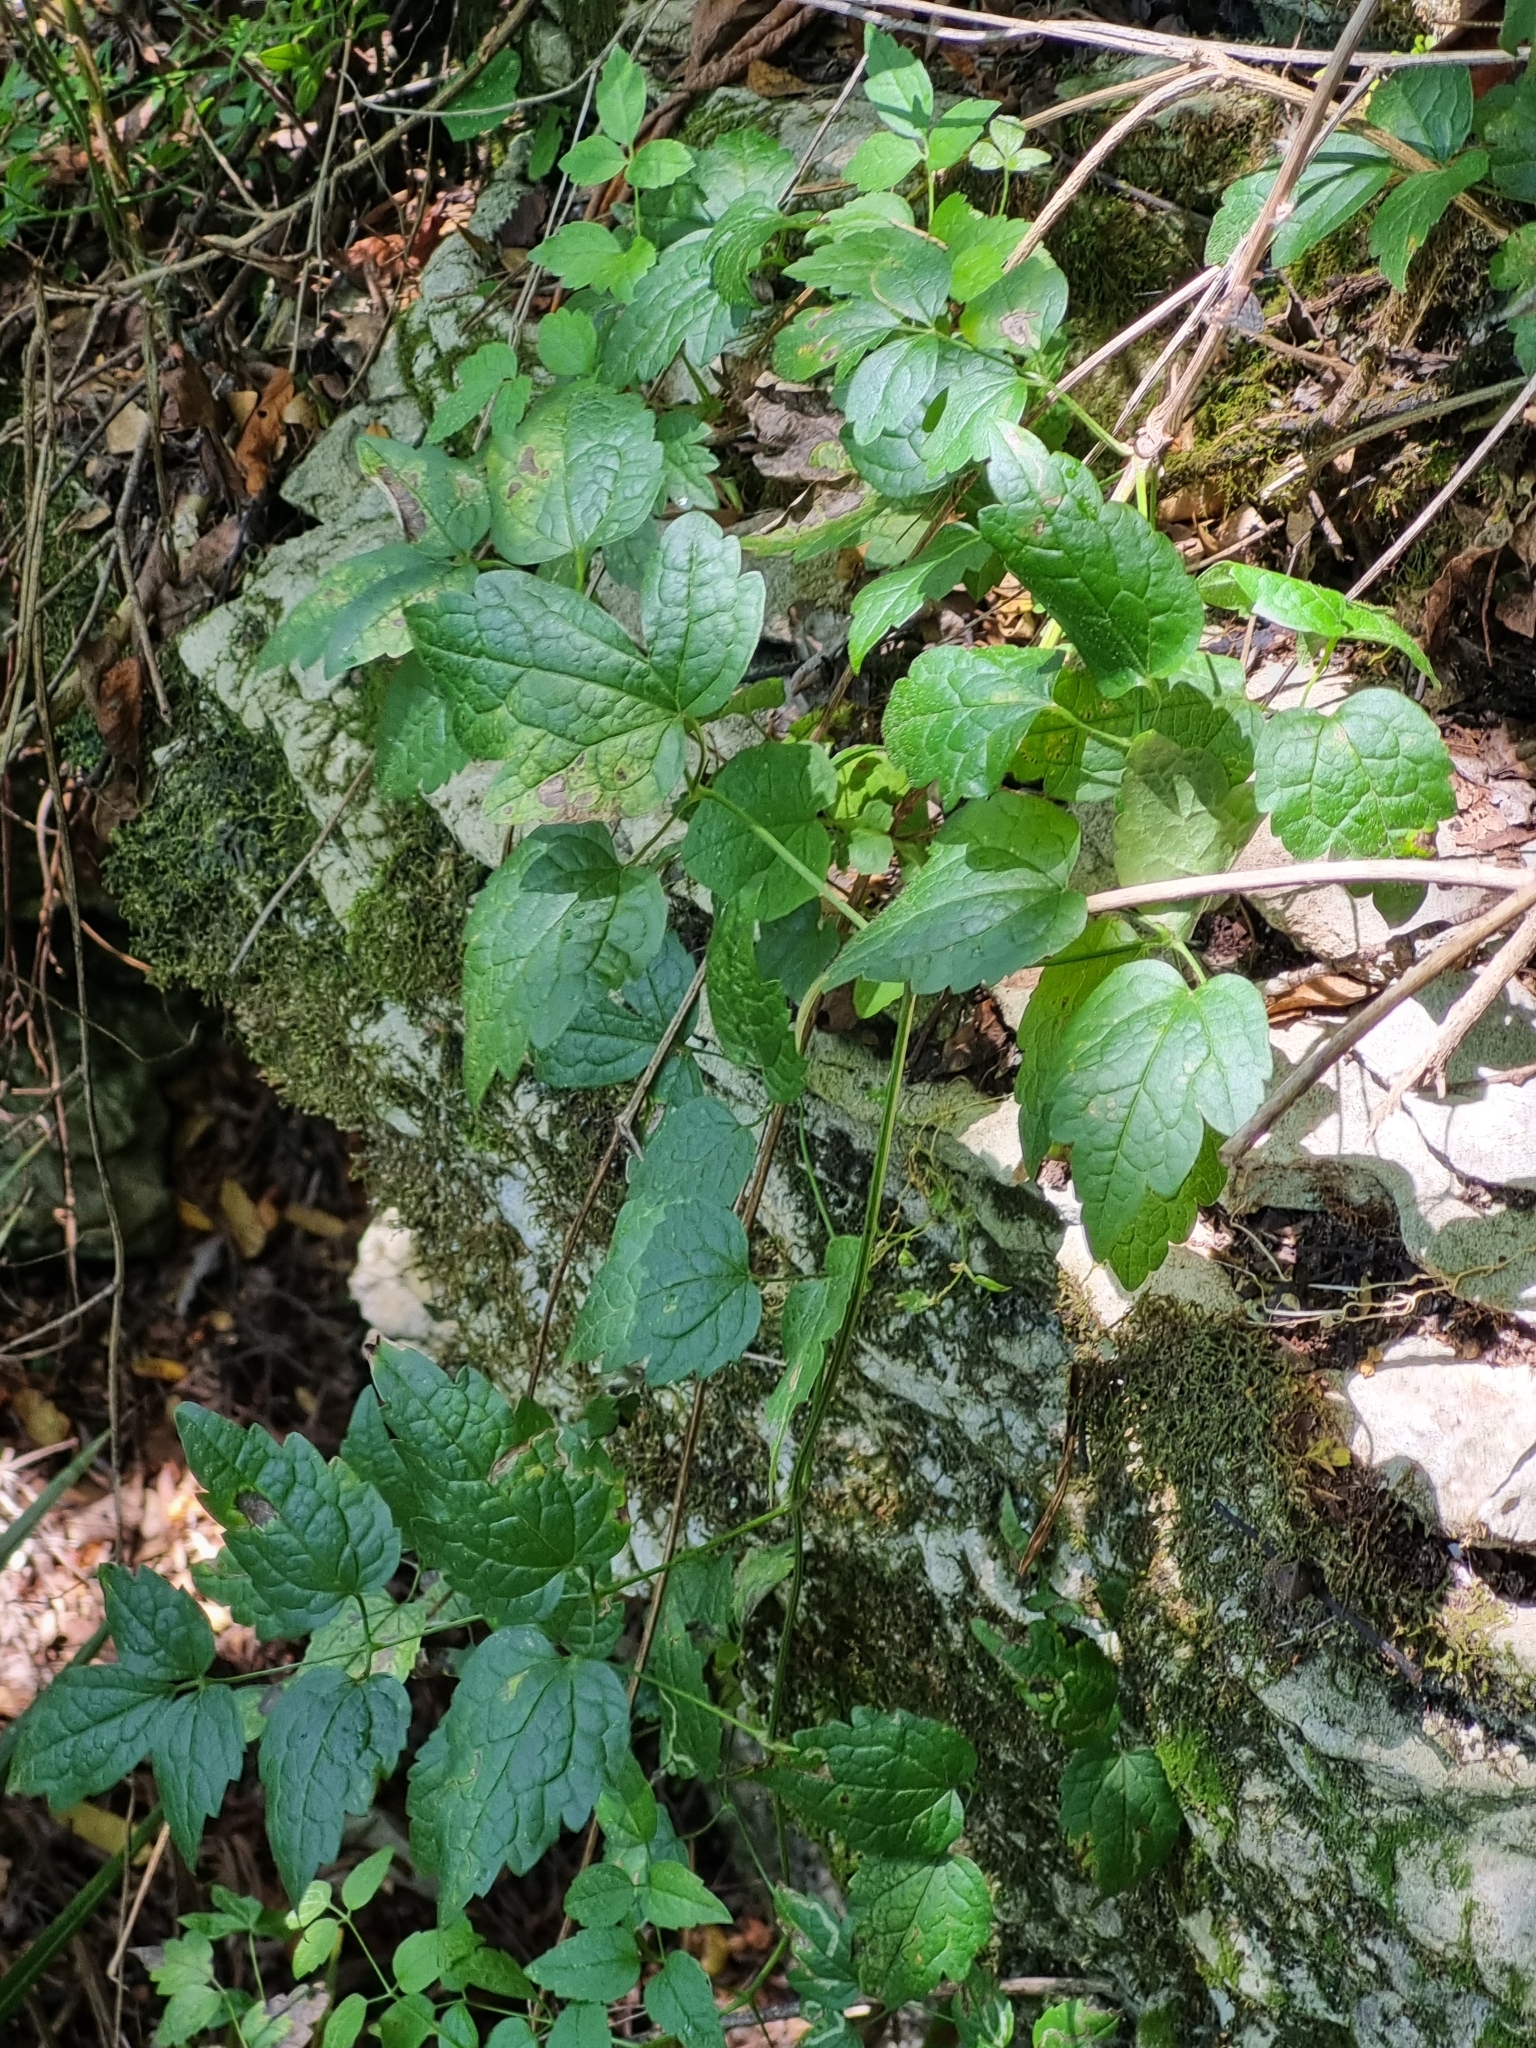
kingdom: Plantae
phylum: Tracheophyta
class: Magnoliopsida
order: Ranunculales
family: Ranunculaceae
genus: Clematis
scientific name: Clematis vitalba
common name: Evergreen clematis
